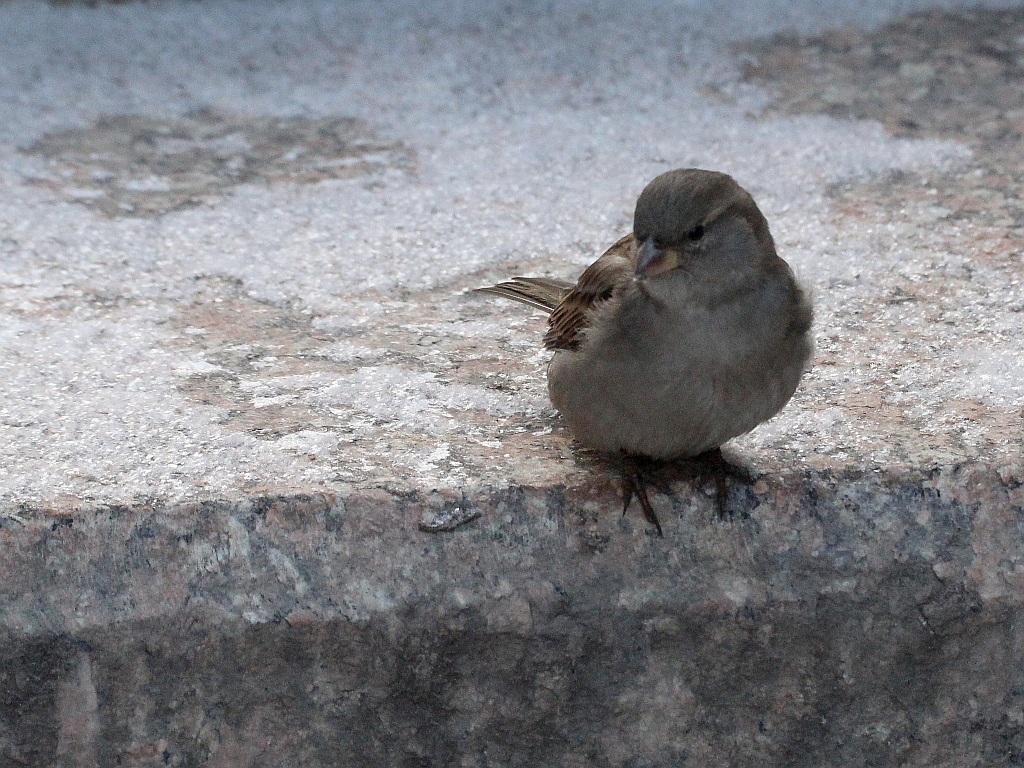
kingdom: Animalia
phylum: Chordata
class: Aves
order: Passeriformes
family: Passeridae
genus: Passer
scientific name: Passer domesticus
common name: House sparrow
